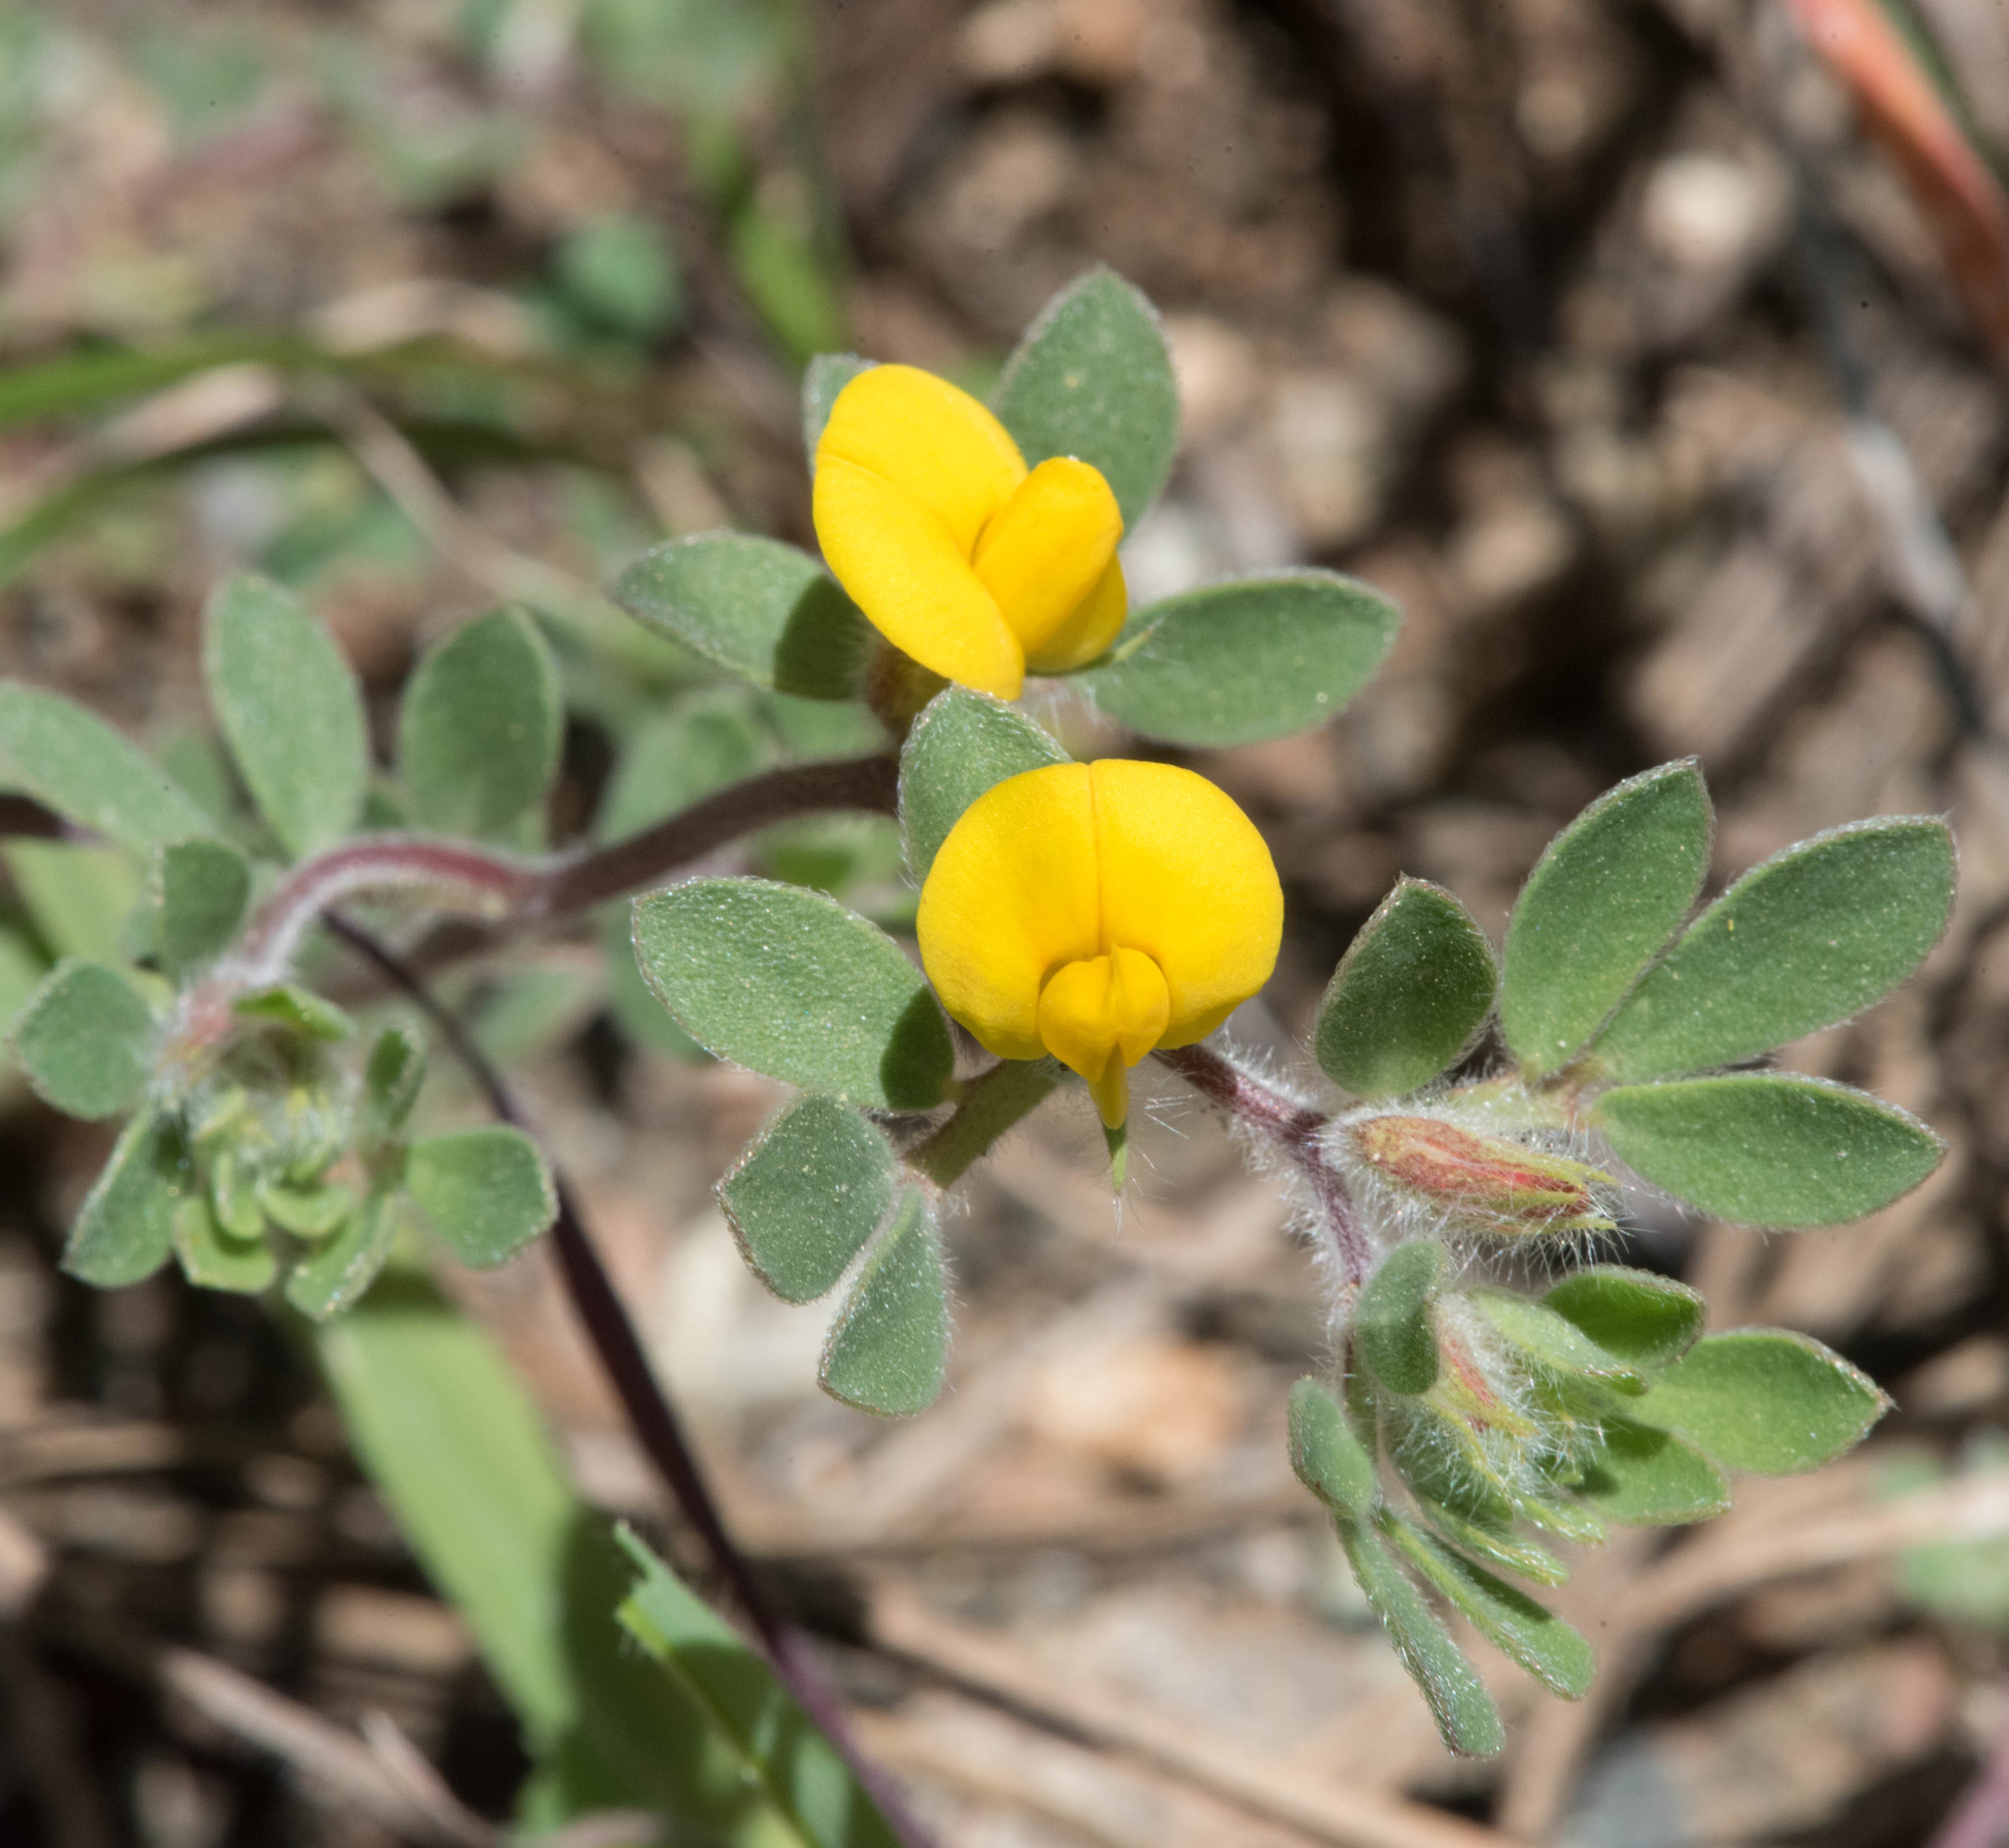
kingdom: Plantae
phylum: Tracheophyta
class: Magnoliopsida
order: Fabales
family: Fabaceae
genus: Acmispon
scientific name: Acmispon brachycarpus
